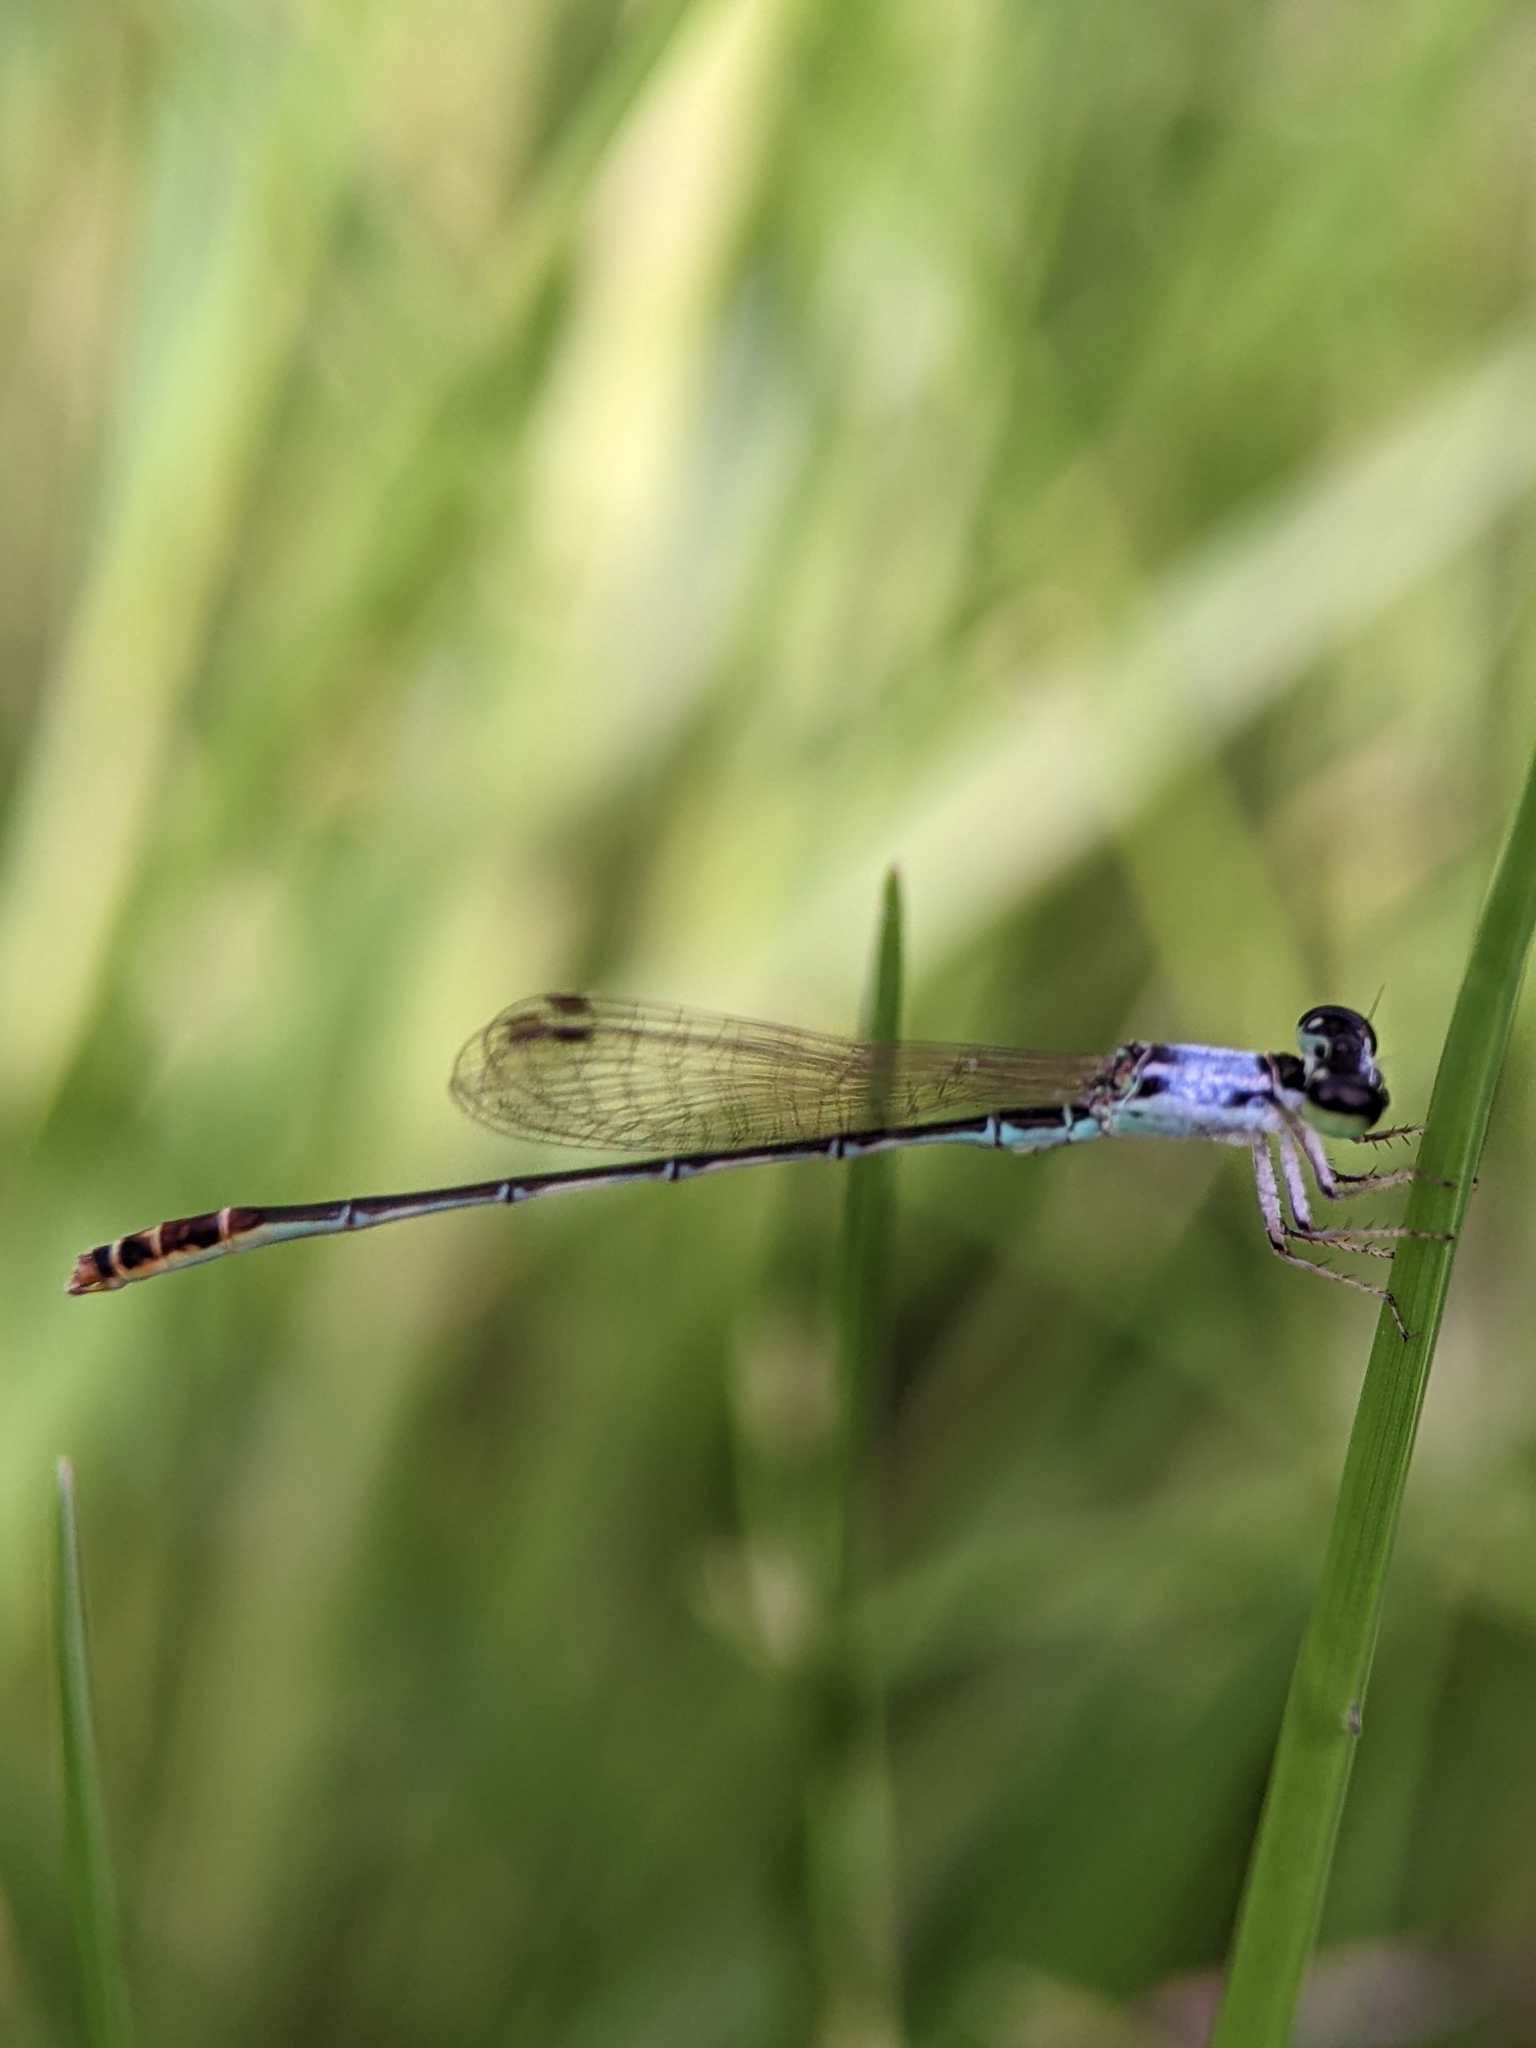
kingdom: Animalia
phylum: Arthropoda
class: Insecta
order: Odonata
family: Coenagrionidae
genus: Agriocnemis
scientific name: Agriocnemis femina
